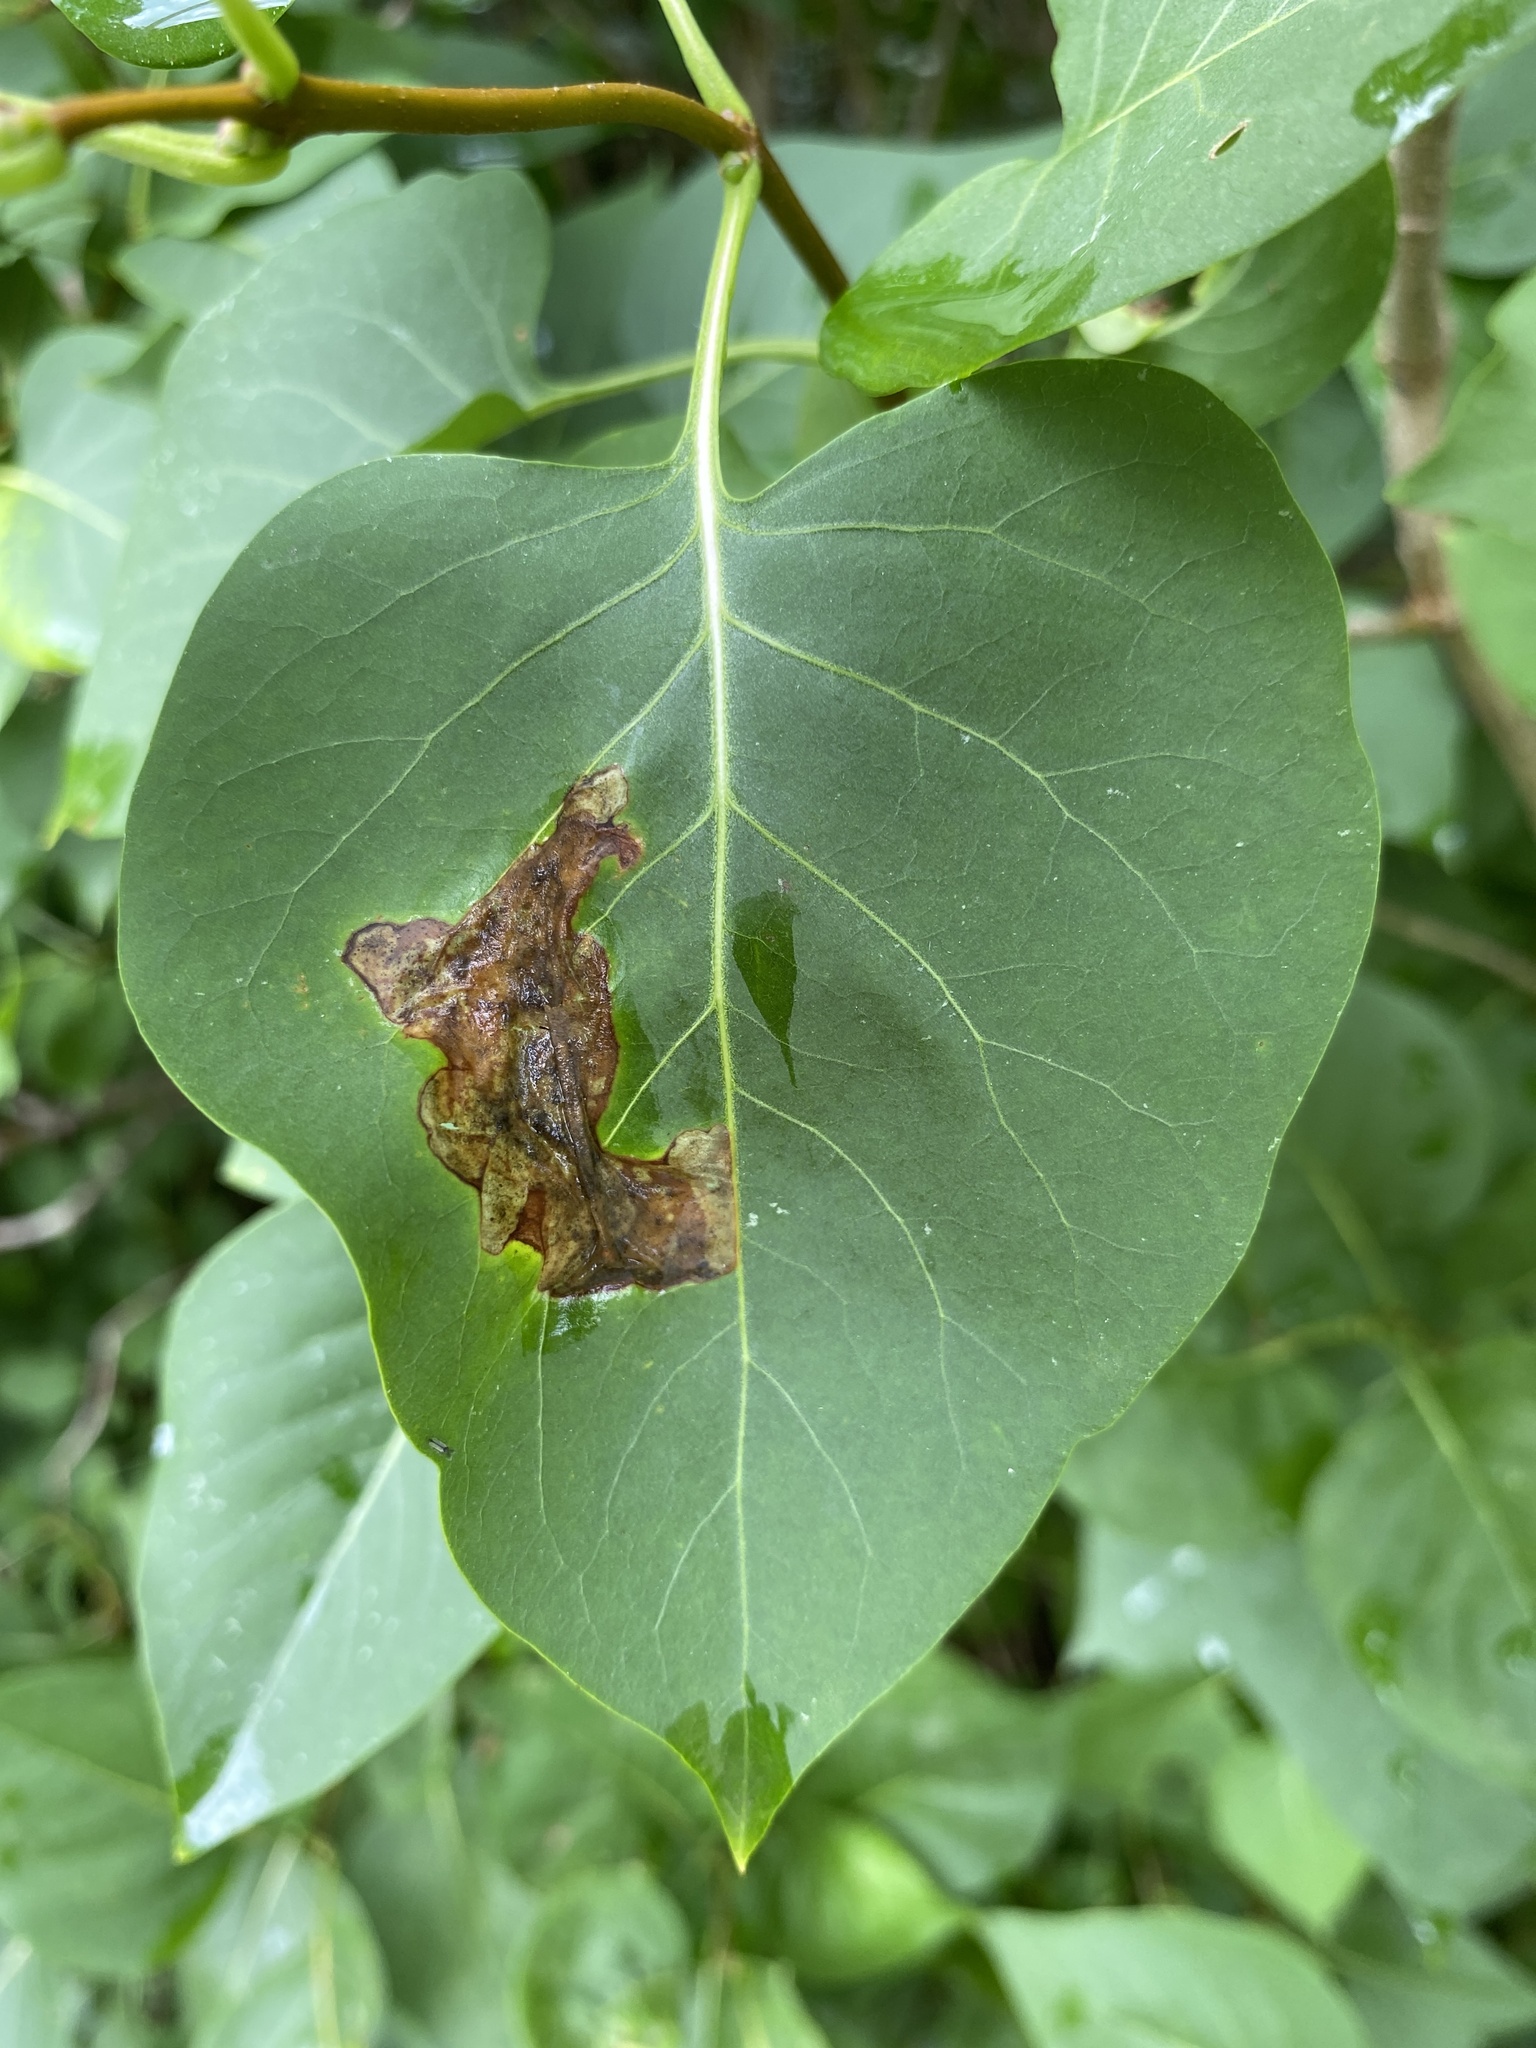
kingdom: Animalia
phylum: Arthropoda
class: Insecta
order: Lepidoptera
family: Gracillariidae
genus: Gracillaria
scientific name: Gracillaria syringella
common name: Common slender
